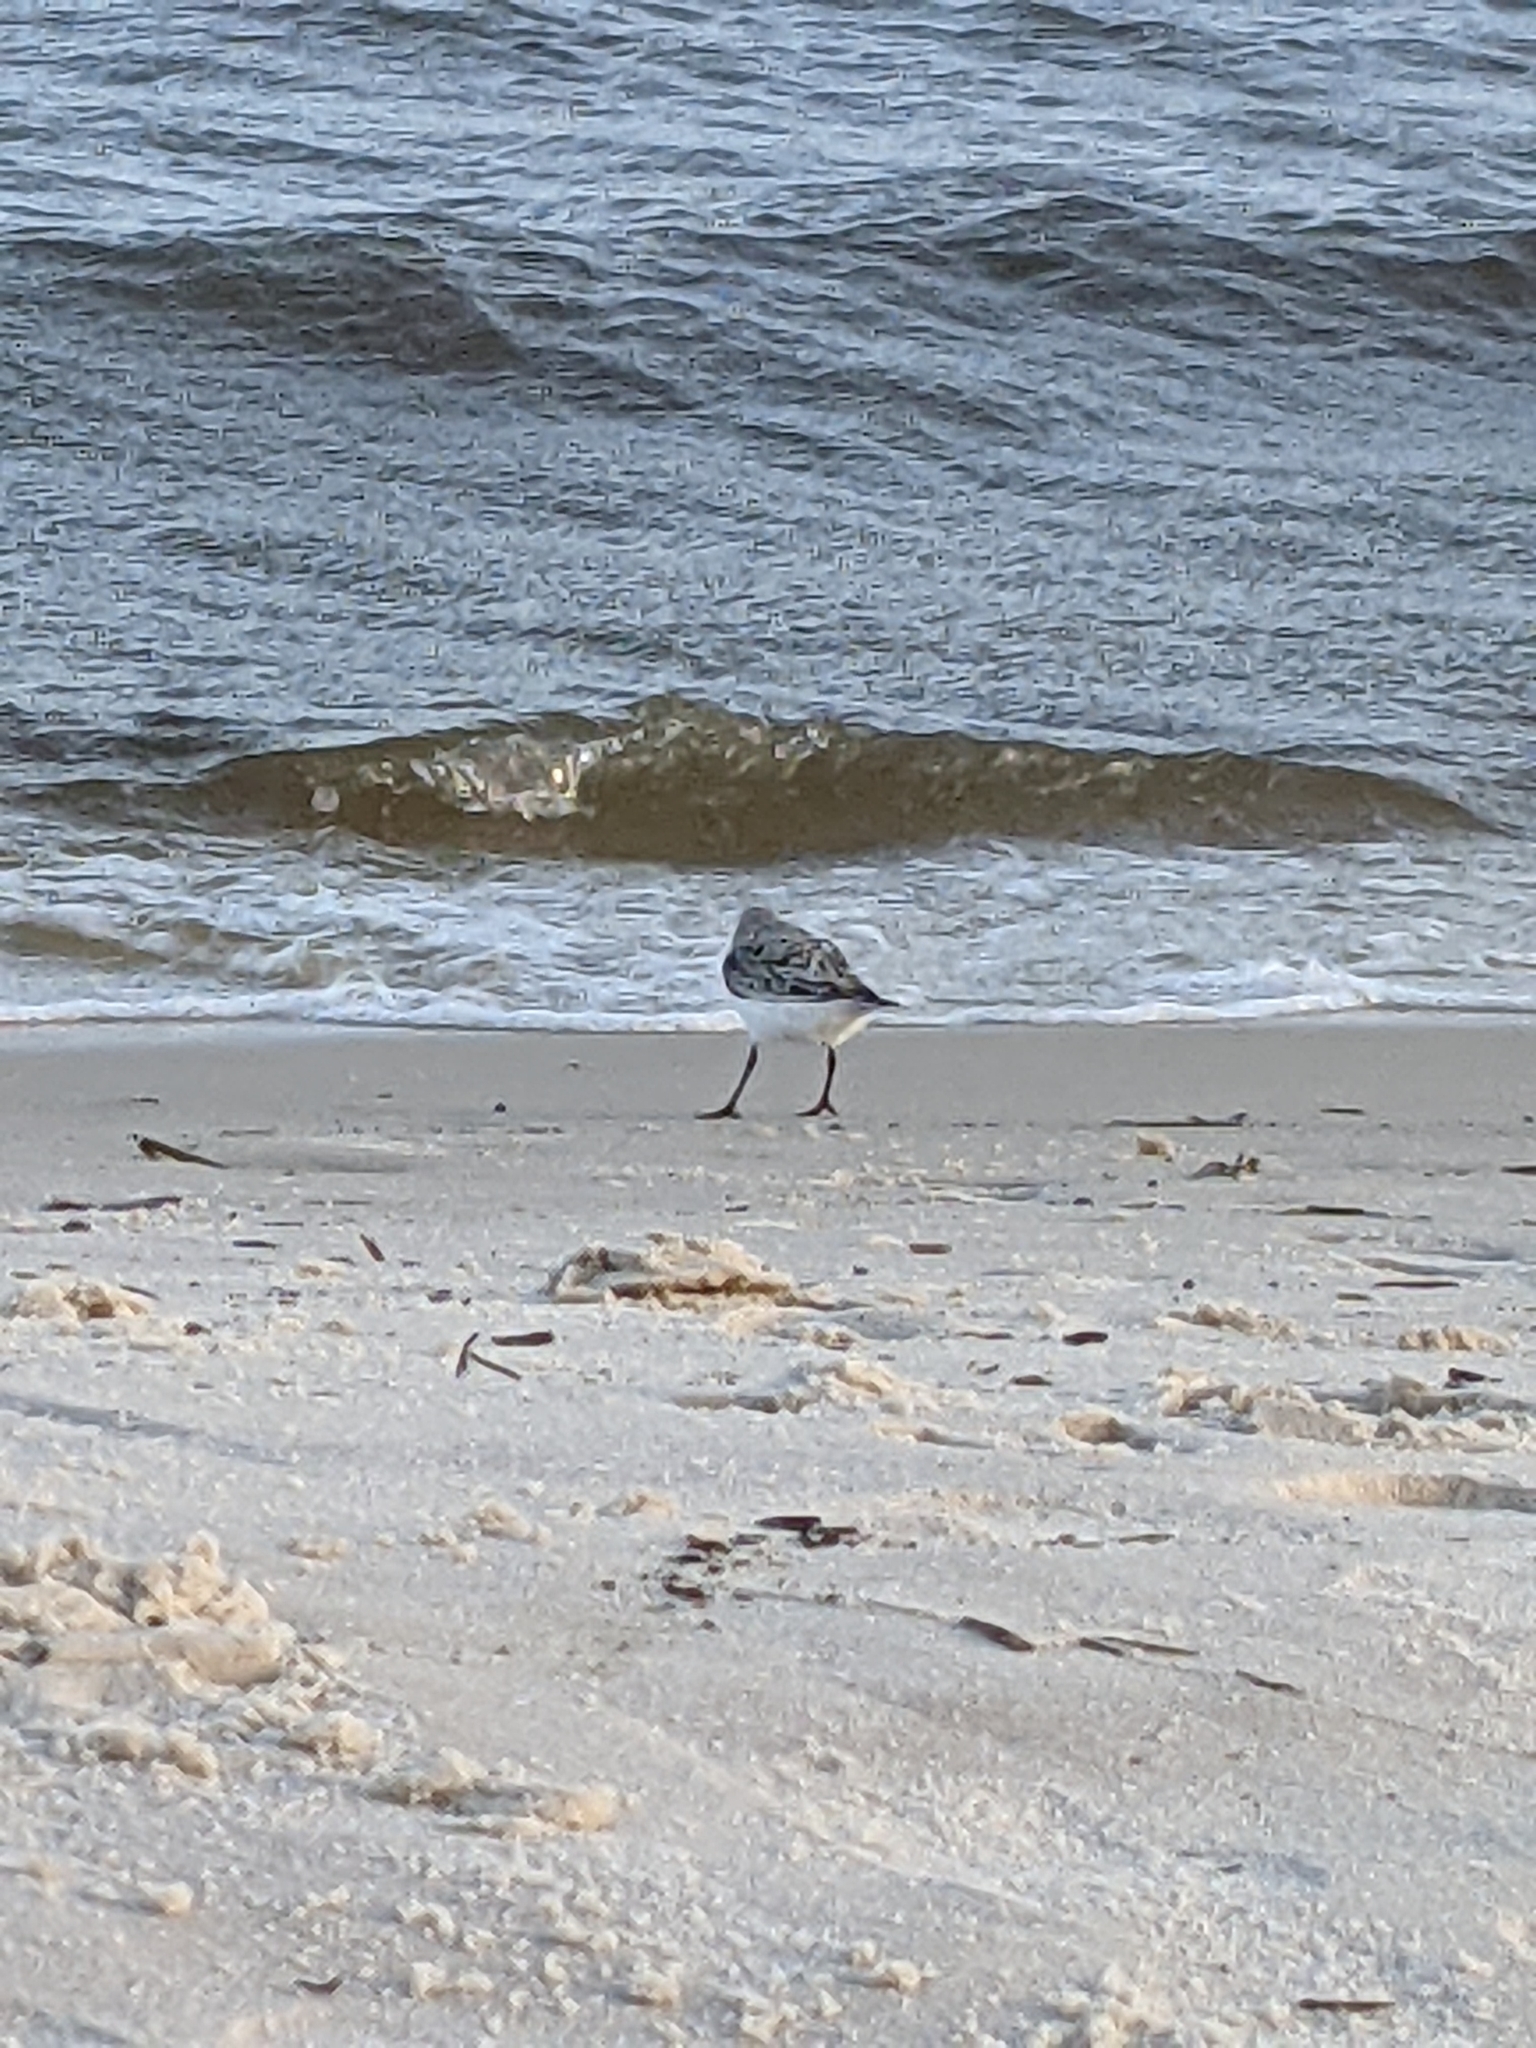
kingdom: Animalia
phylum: Chordata
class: Aves
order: Charadriiformes
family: Scolopacidae
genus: Calidris
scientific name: Calidris alba
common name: Sanderling
